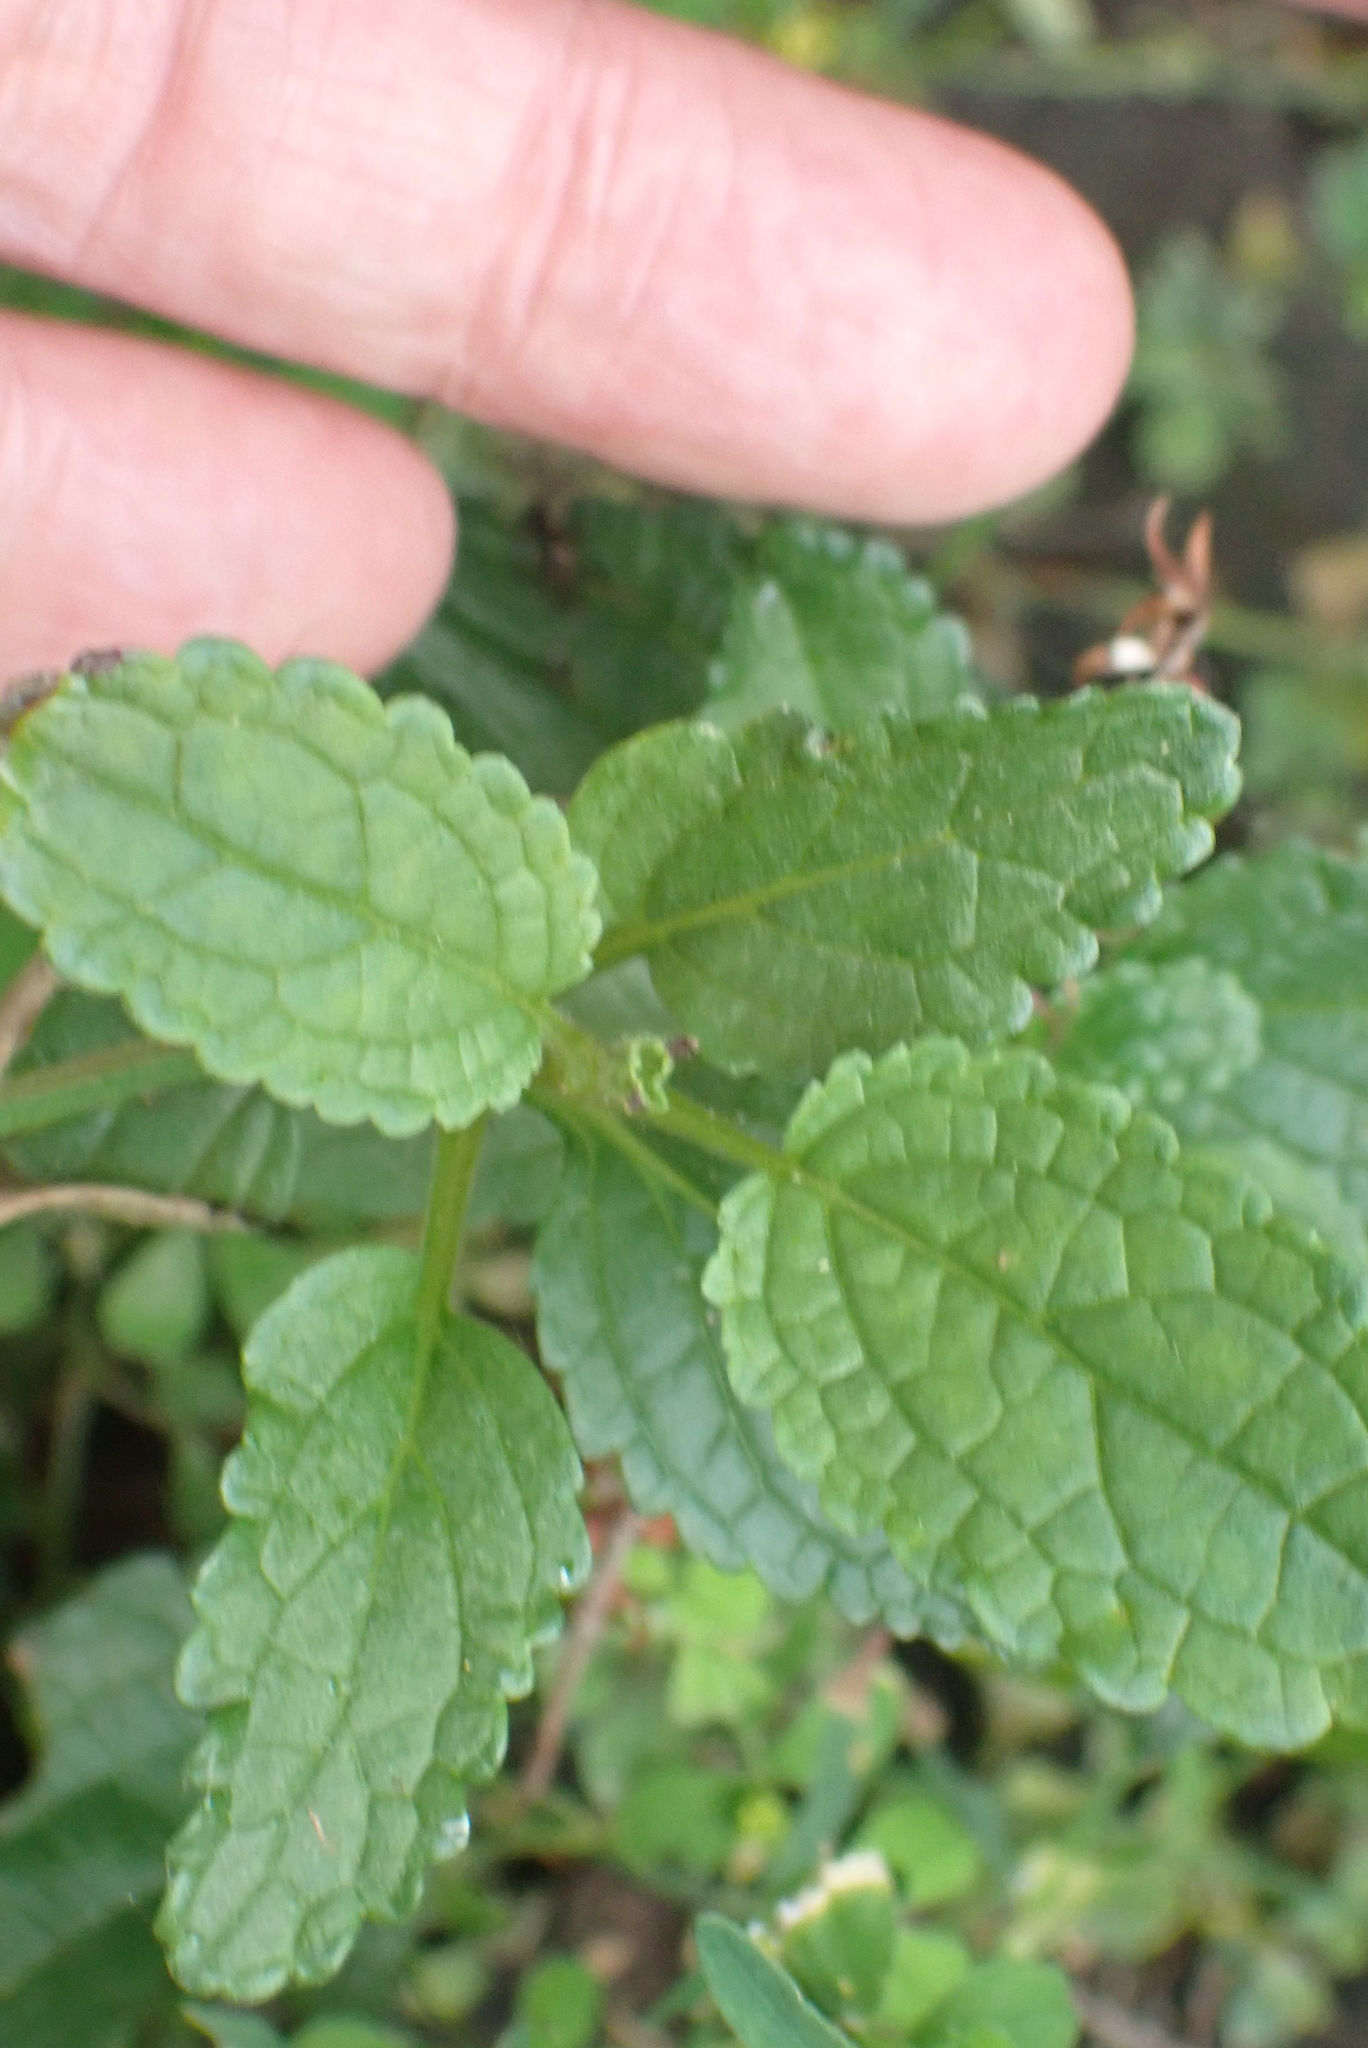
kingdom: Plantae
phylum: Tracheophyta
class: Magnoliopsida
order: Lamiales
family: Scrophulariaceae
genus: Scrophularia
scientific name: Scrophularia auriculata
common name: Water betony
